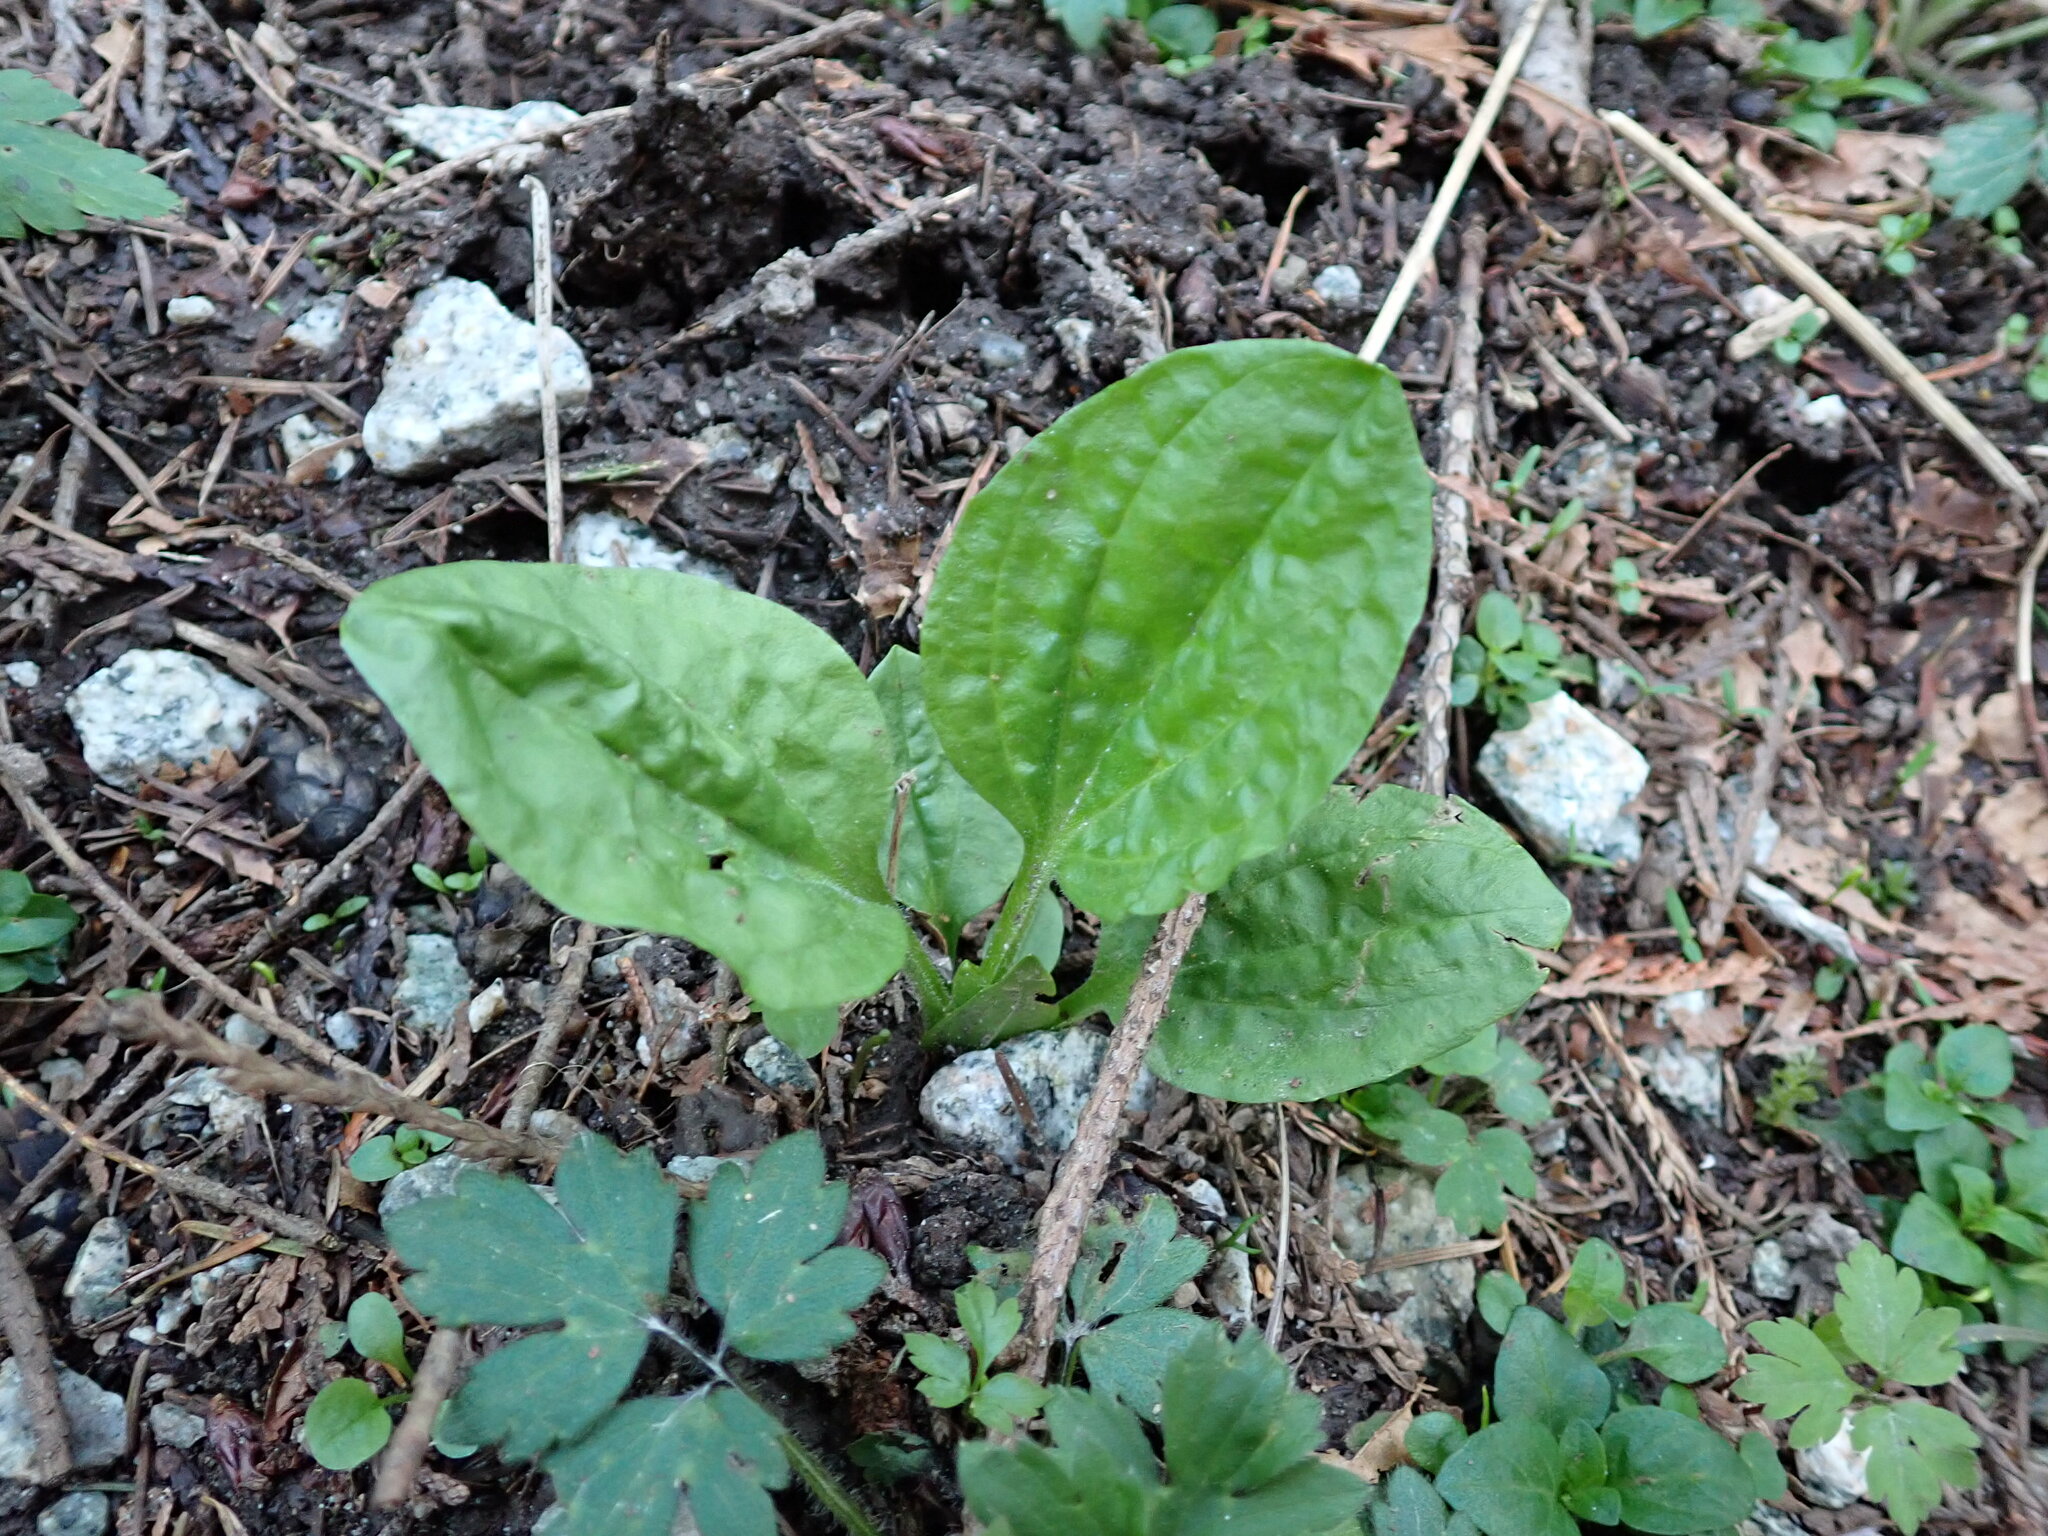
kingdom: Plantae
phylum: Tracheophyta
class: Magnoliopsida
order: Lamiales
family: Plantaginaceae
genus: Plantago
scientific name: Plantago major
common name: Common plantain
